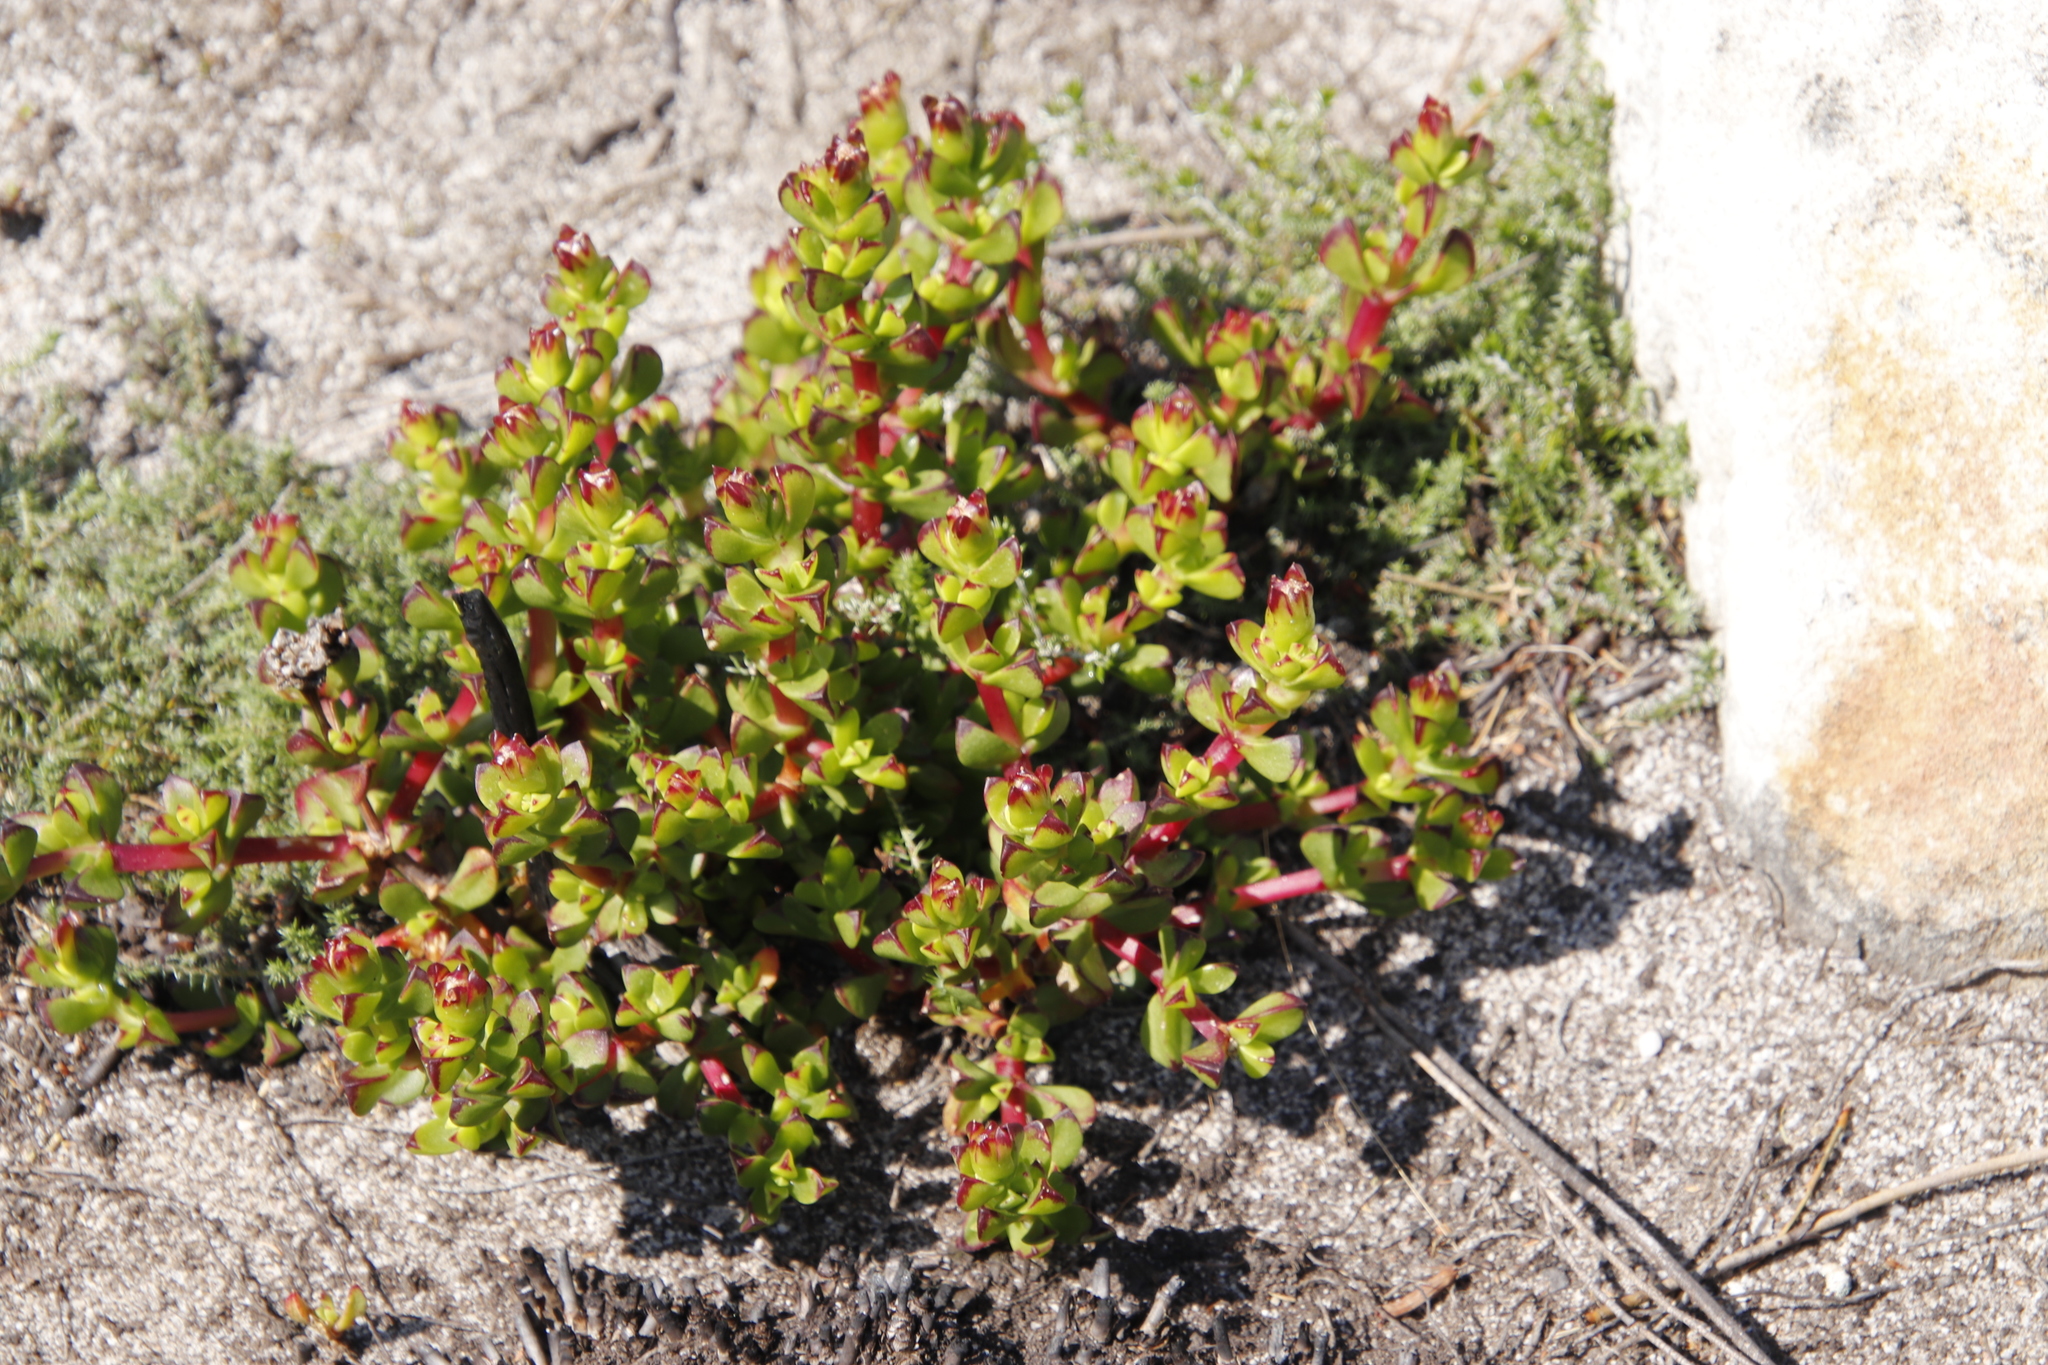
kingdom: Plantae
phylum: Tracheophyta
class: Magnoliopsida
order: Caryophyllales
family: Aizoaceae
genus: Erepsia
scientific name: Erepsia inclaudens
